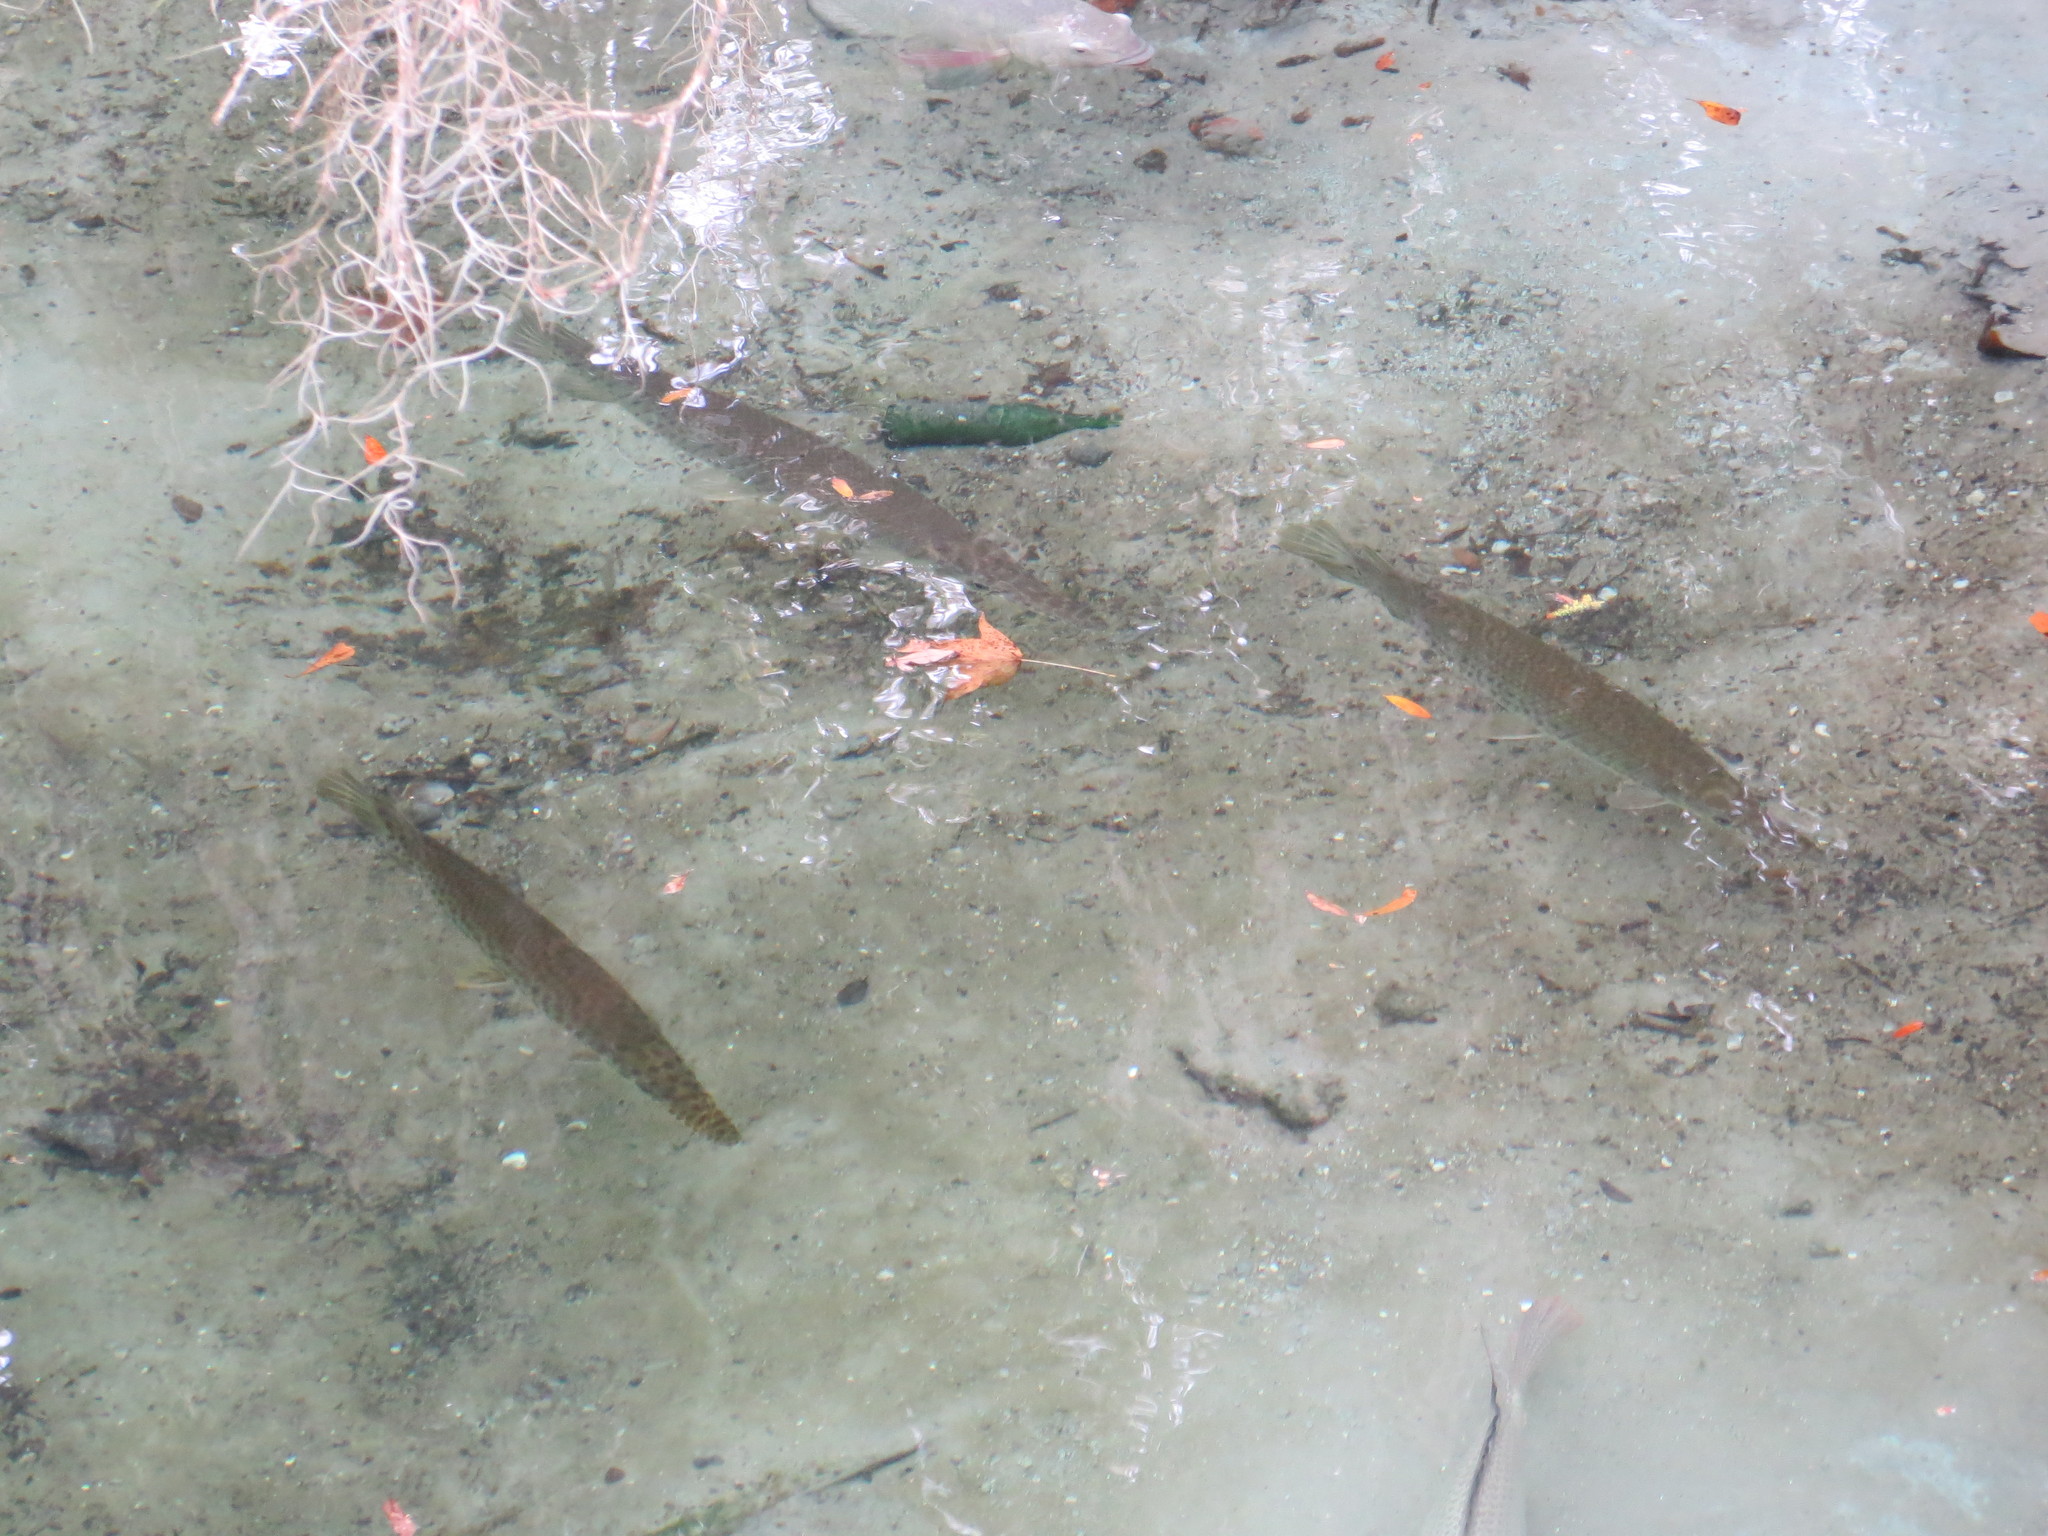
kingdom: Animalia
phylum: Chordata
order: Lepisosteiformes
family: Lepisosteidae
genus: Lepisosteus
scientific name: Lepisosteus platyrhincus
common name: Florida gar
